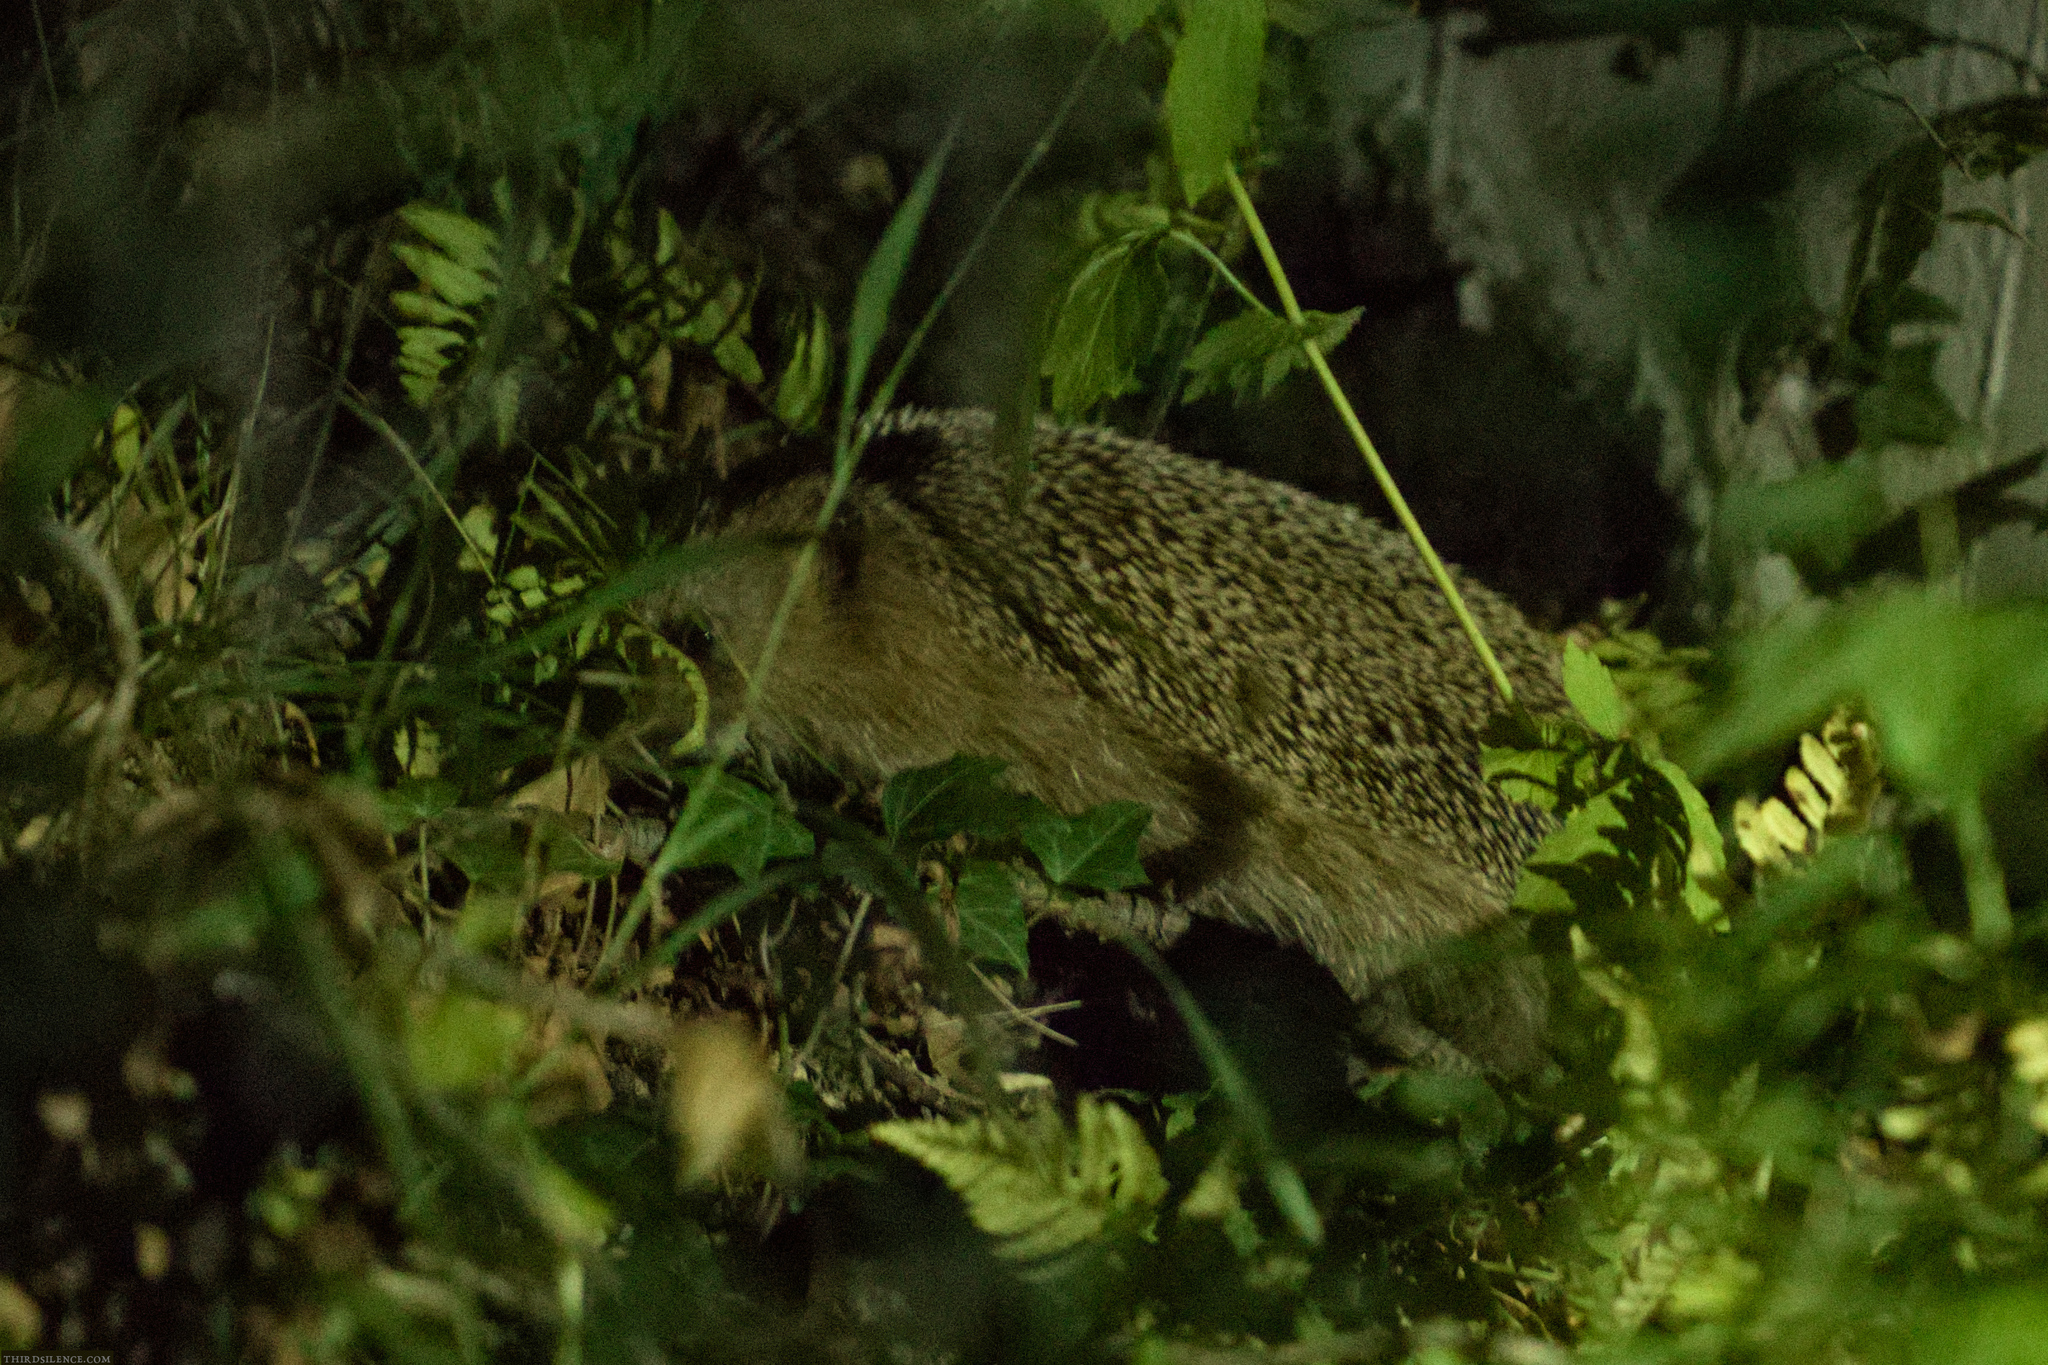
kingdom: Animalia
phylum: Chordata
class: Mammalia
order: Erinaceomorpha
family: Erinaceidae
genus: Erinaceus
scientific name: Erinaceus europaeus
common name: West european hedgehog
